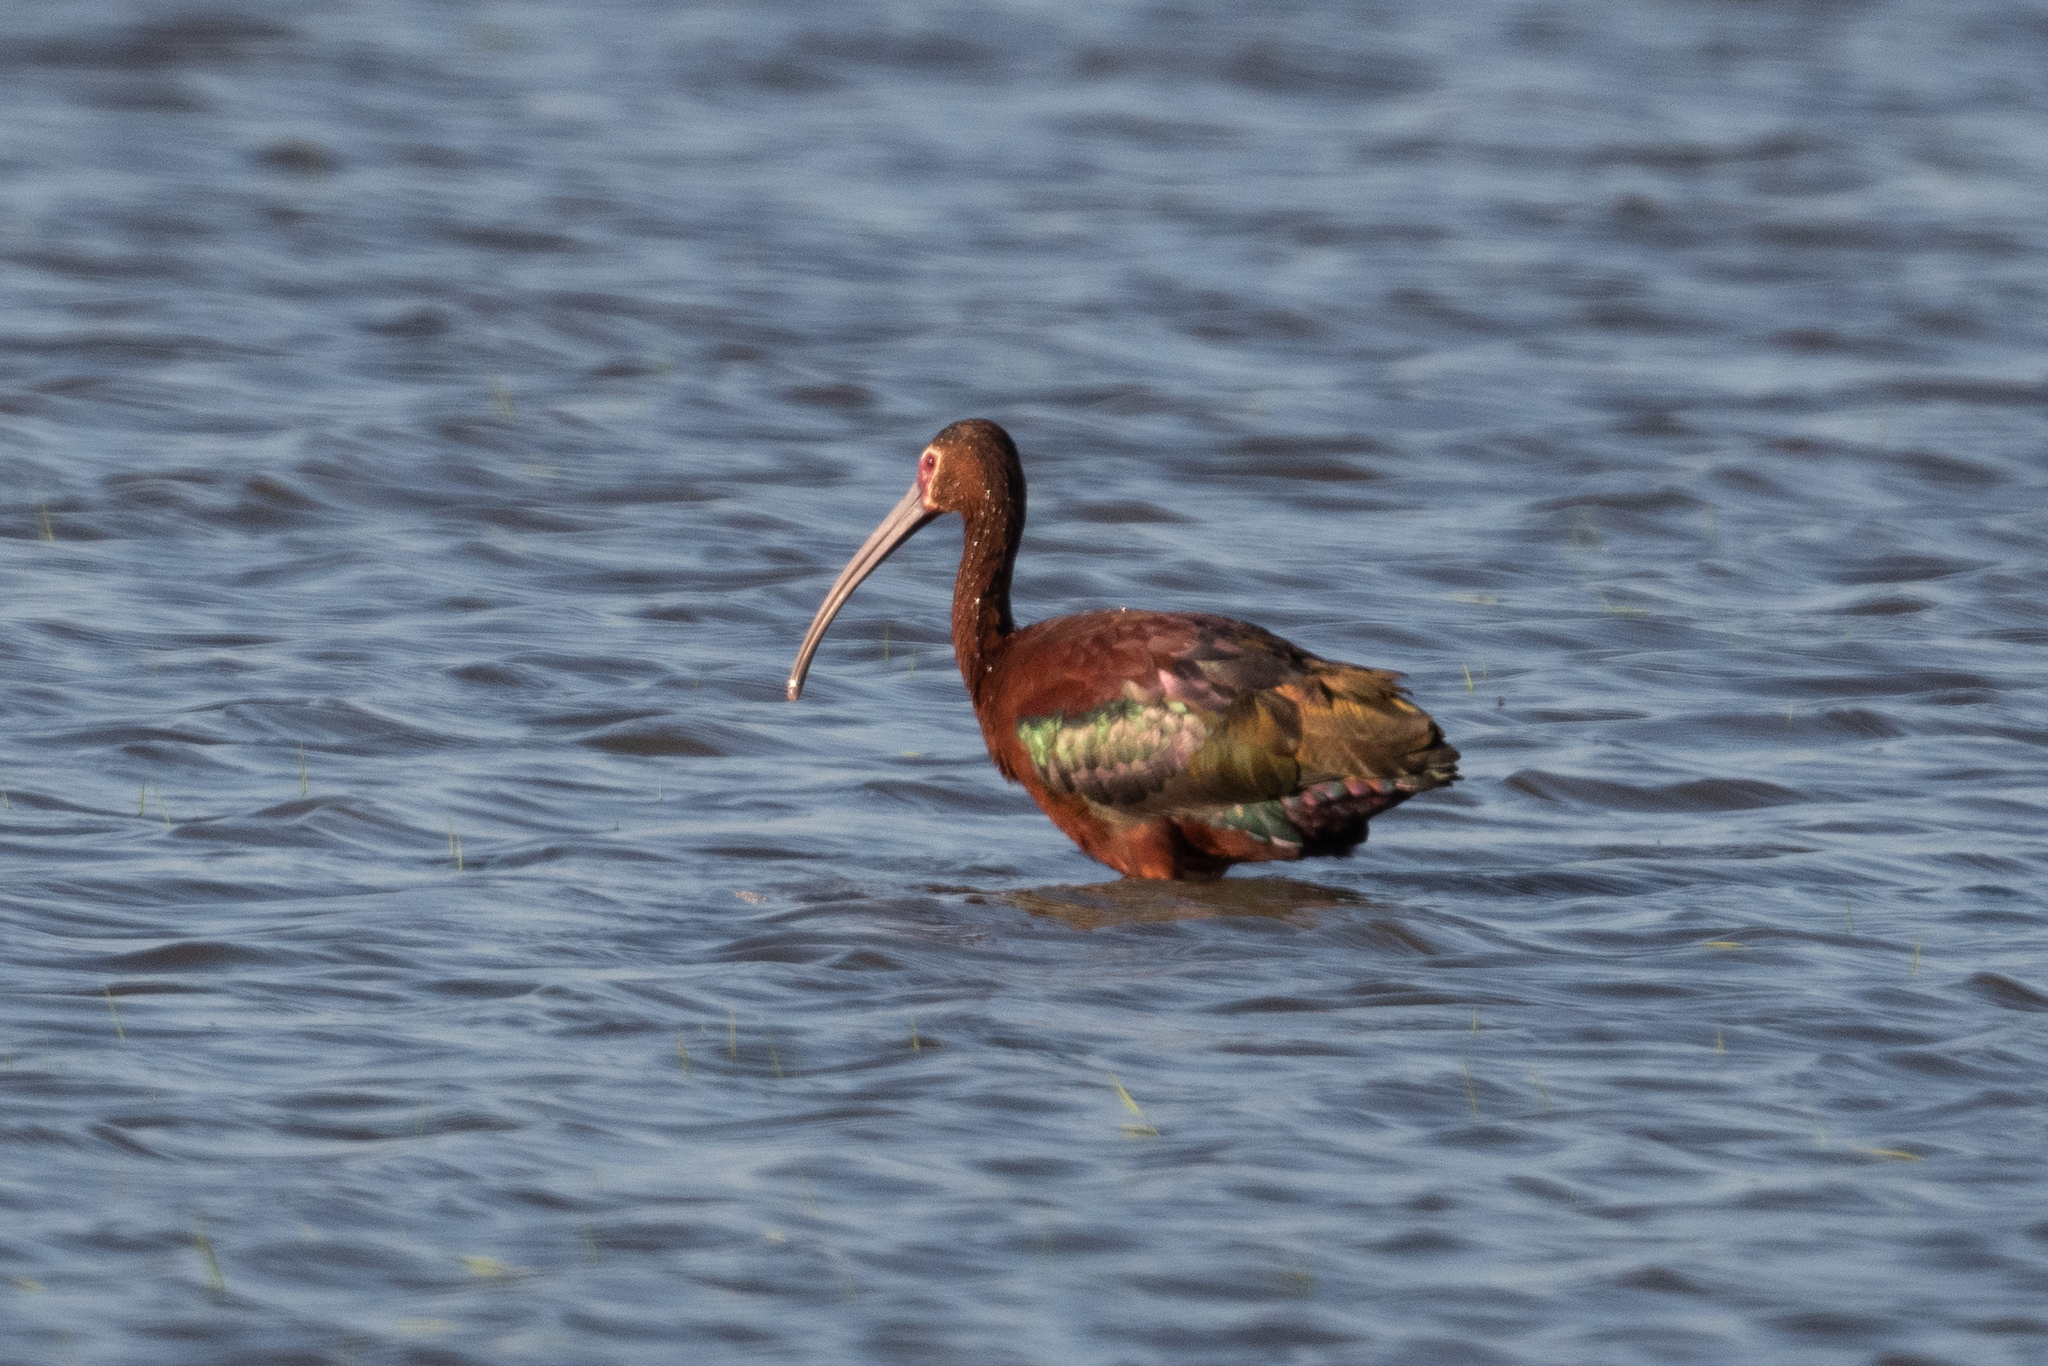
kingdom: Animalia
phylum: Chordata
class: Aves
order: Pelecaniformes
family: Threskiornithidae
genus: Plegadis
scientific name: Plegadis chihi
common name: White-faced ibis
